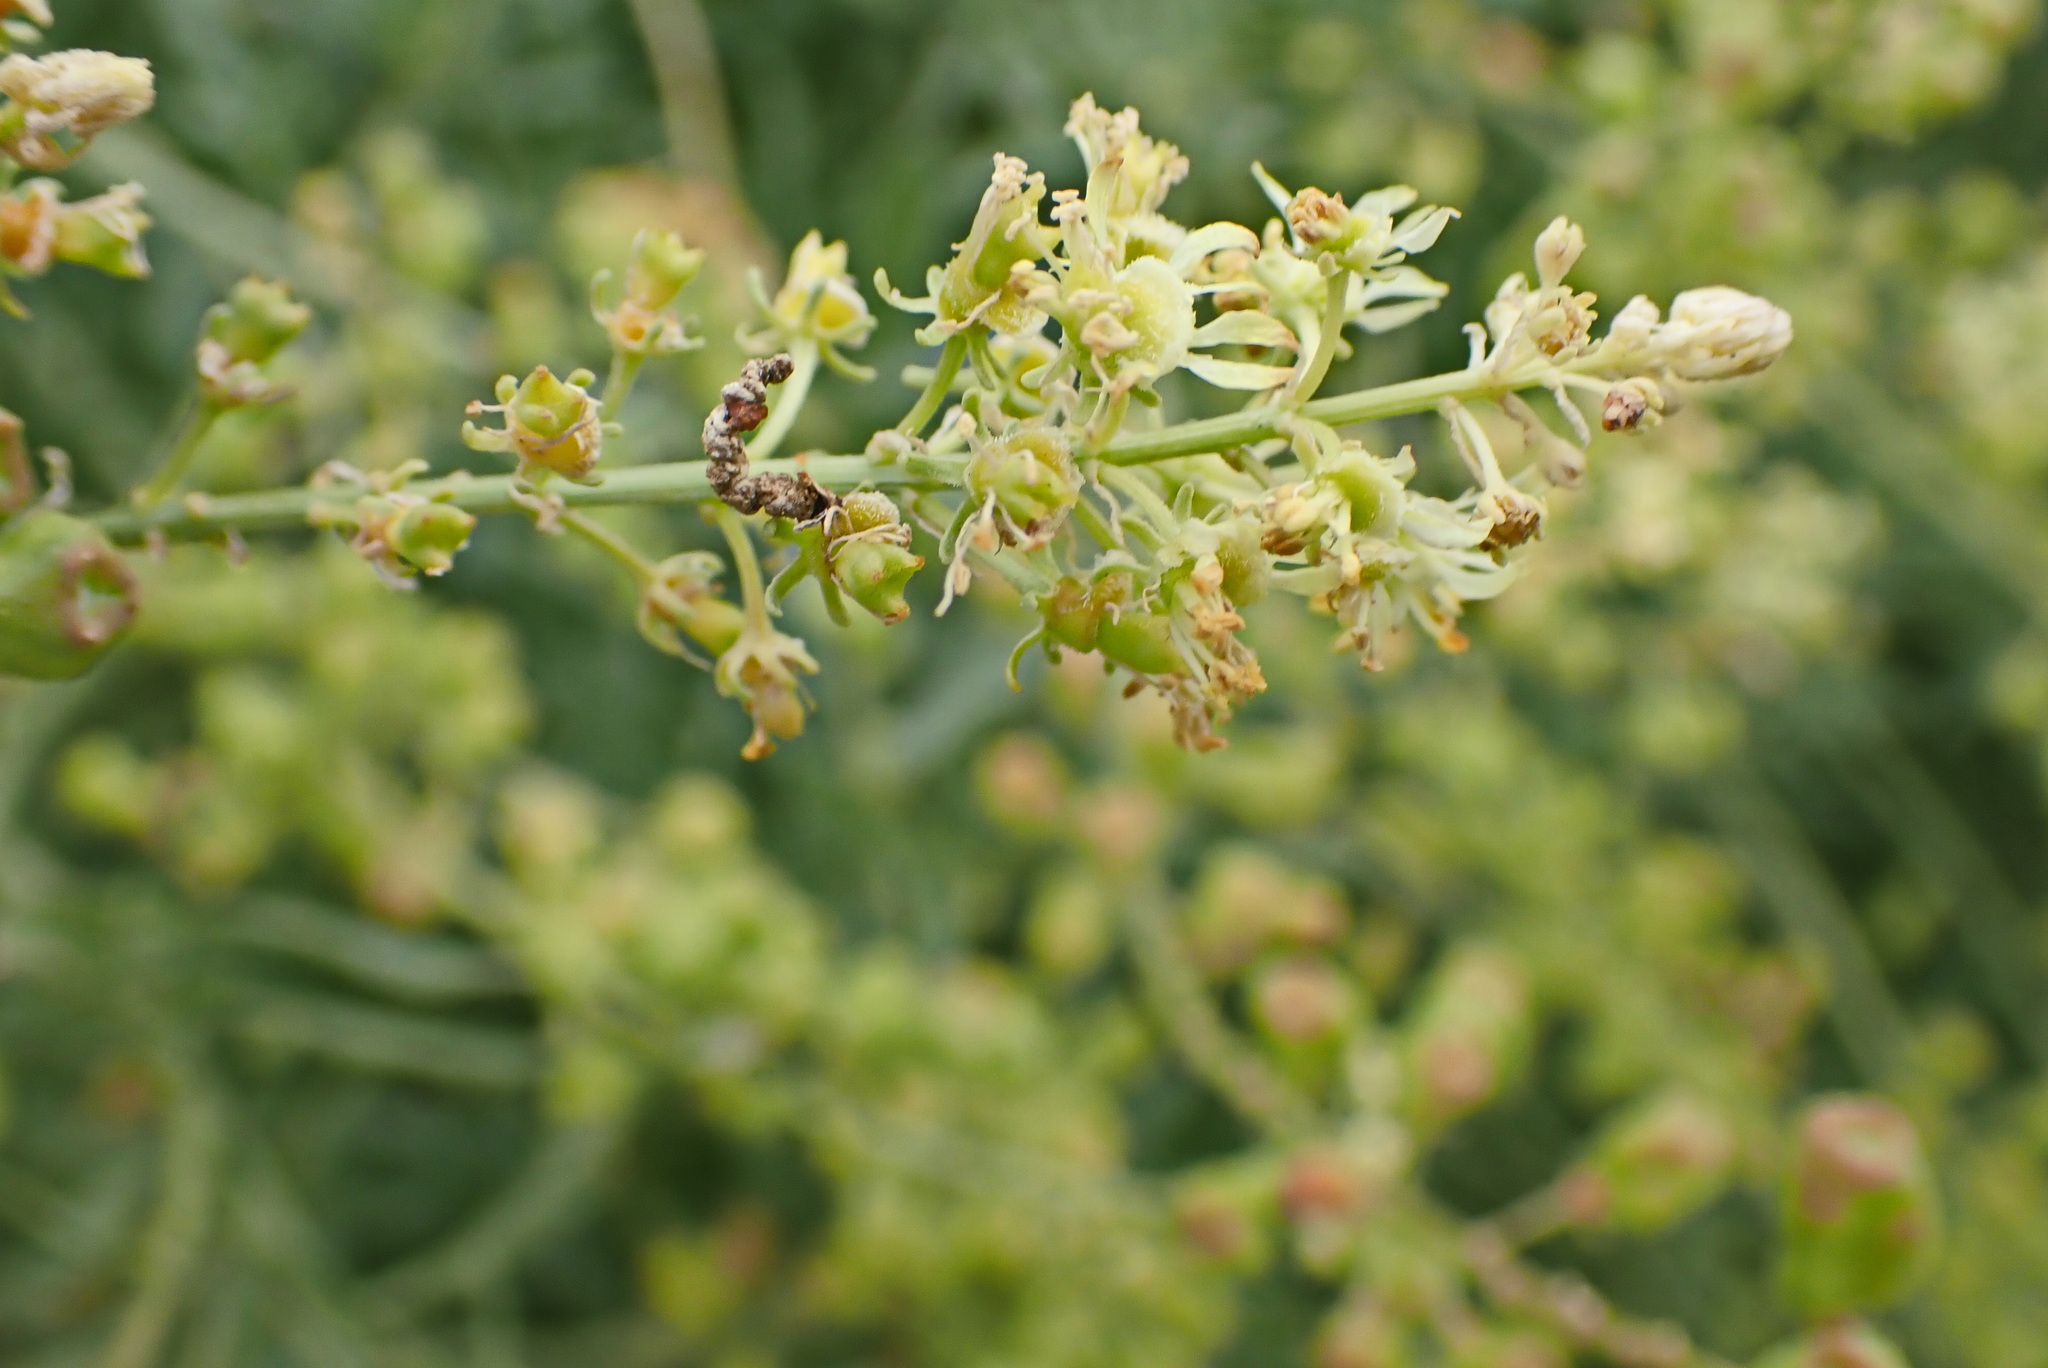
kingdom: Plantae
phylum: Tracheophyta
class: Magnoliopsida
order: Brassicales
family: Resedaceae
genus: Reseda
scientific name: Reseda lutea
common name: Wild mignonette
